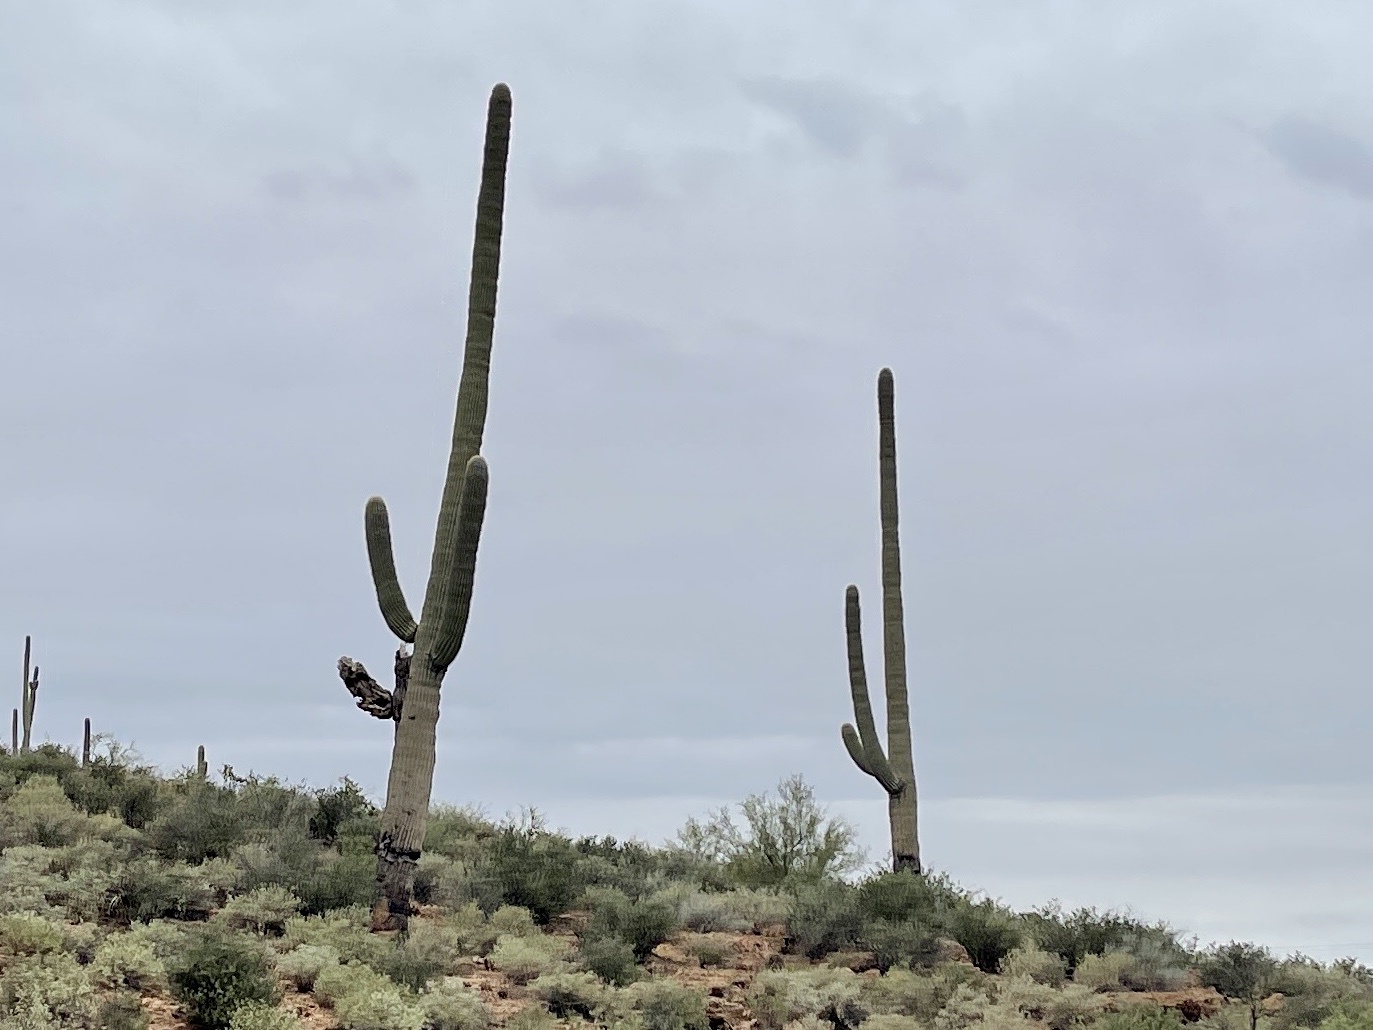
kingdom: Plantae
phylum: Tracheophyta
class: Magnoliopsida
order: Caryophyllales
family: Cactaceae
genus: Carnegiea
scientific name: Carnegiea gigantea
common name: Saguaro
